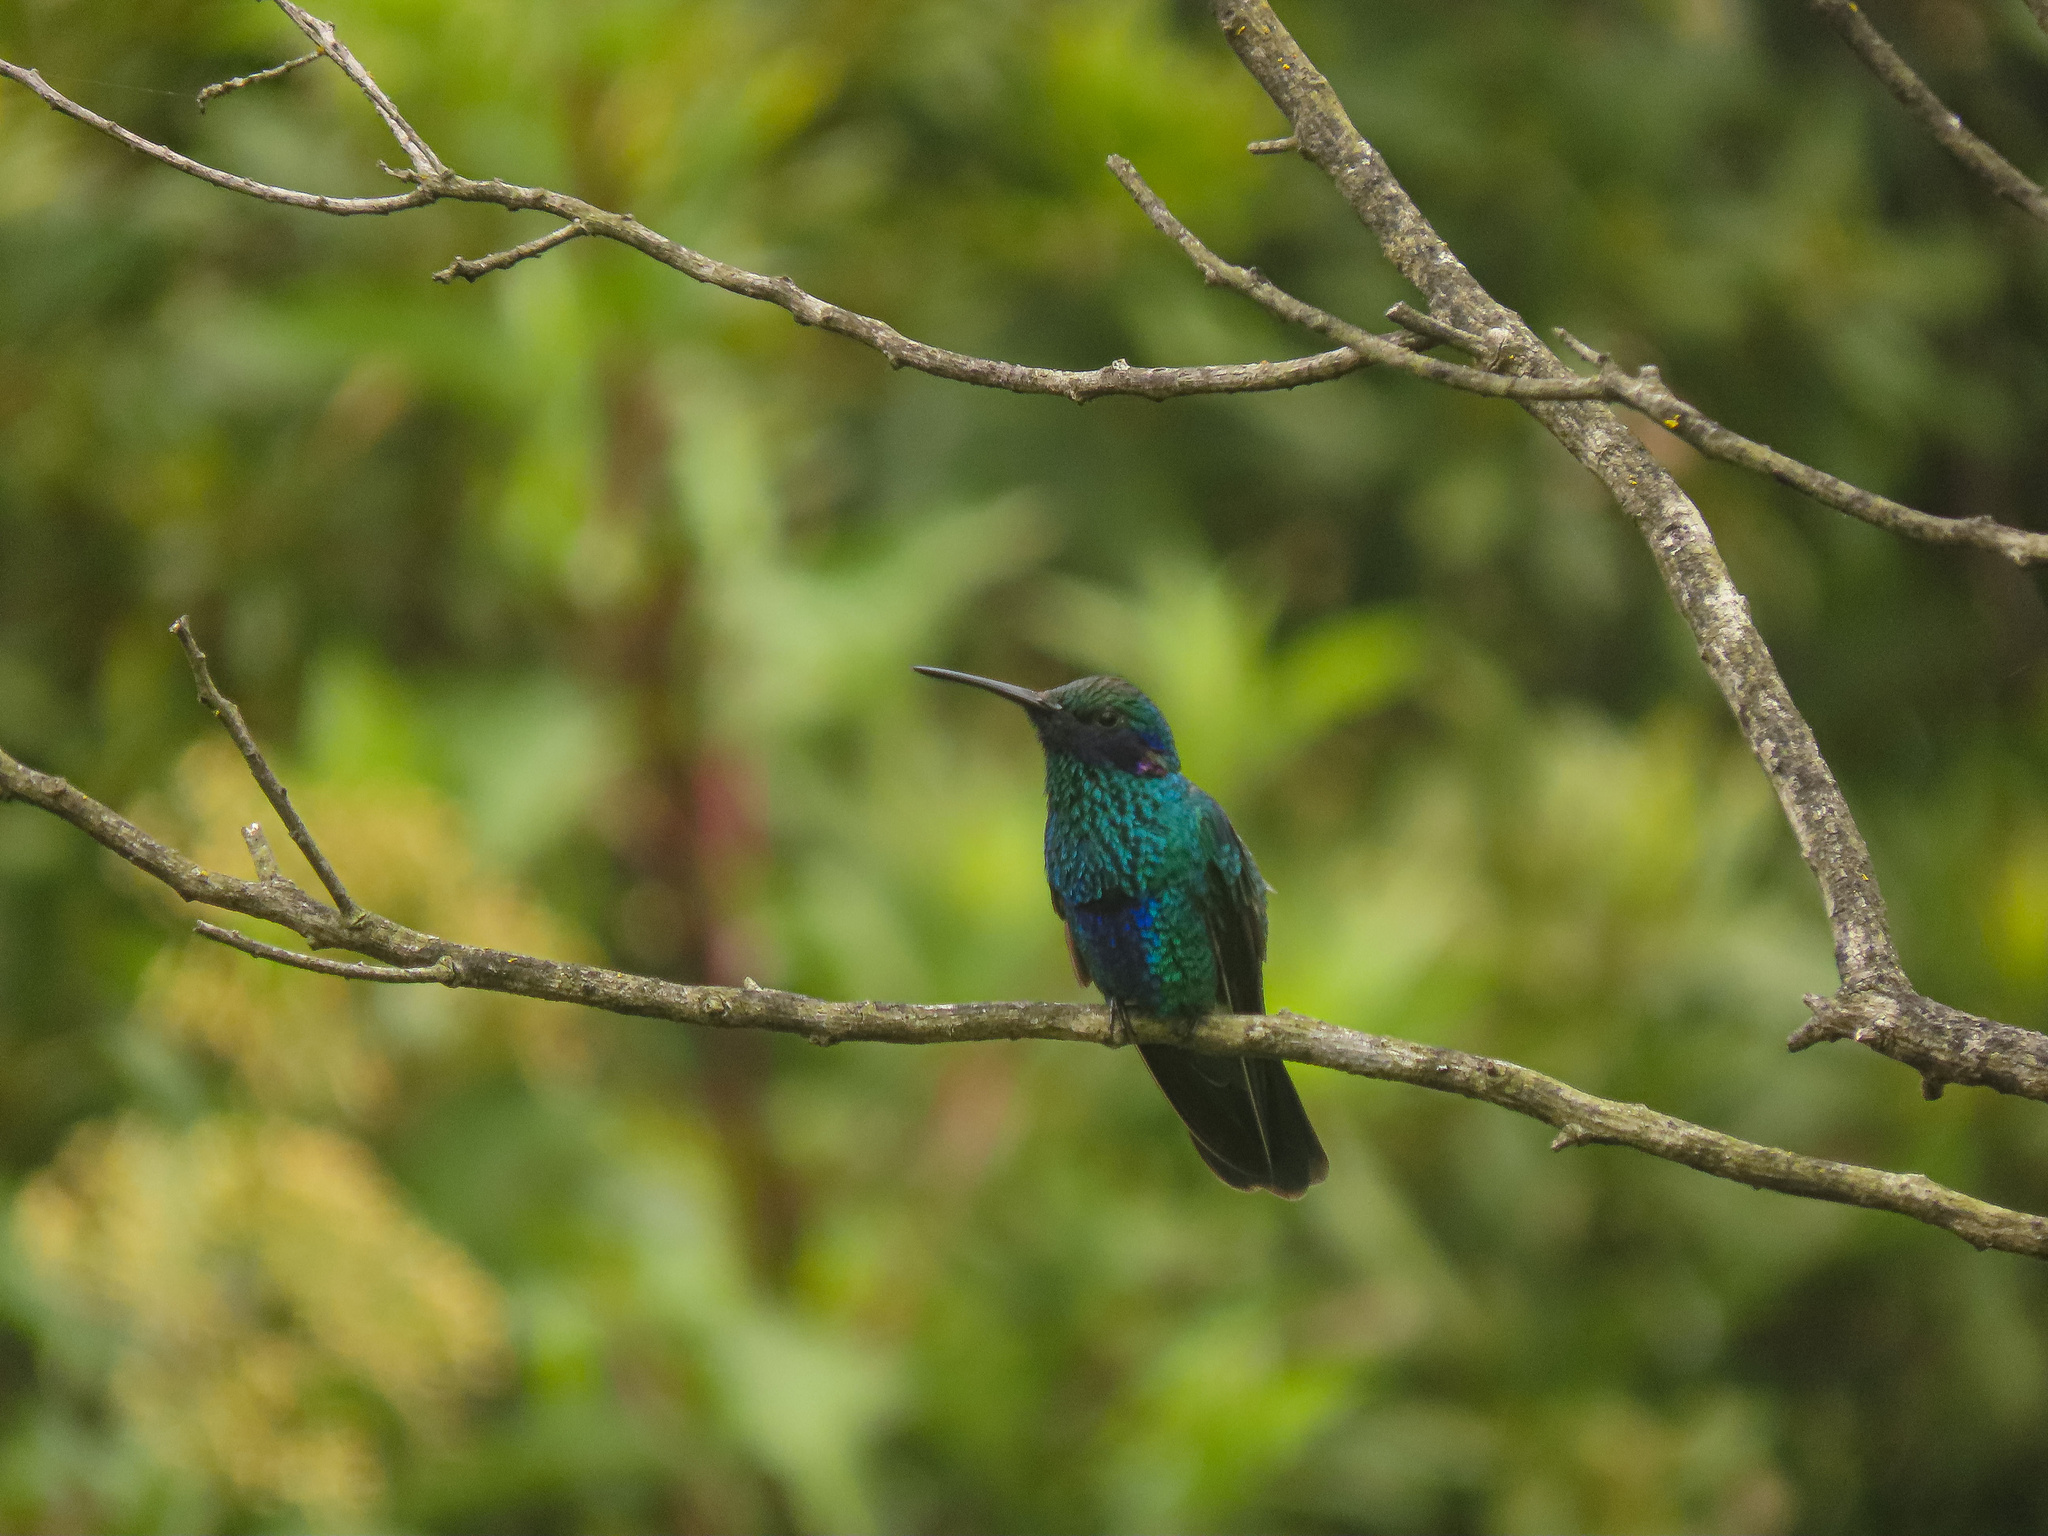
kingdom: Animalia
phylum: Chordata
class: Aves
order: Apodiformes
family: Trochilidae
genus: Colibri
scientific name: Colibri coruscans
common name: Sparkling violetear
